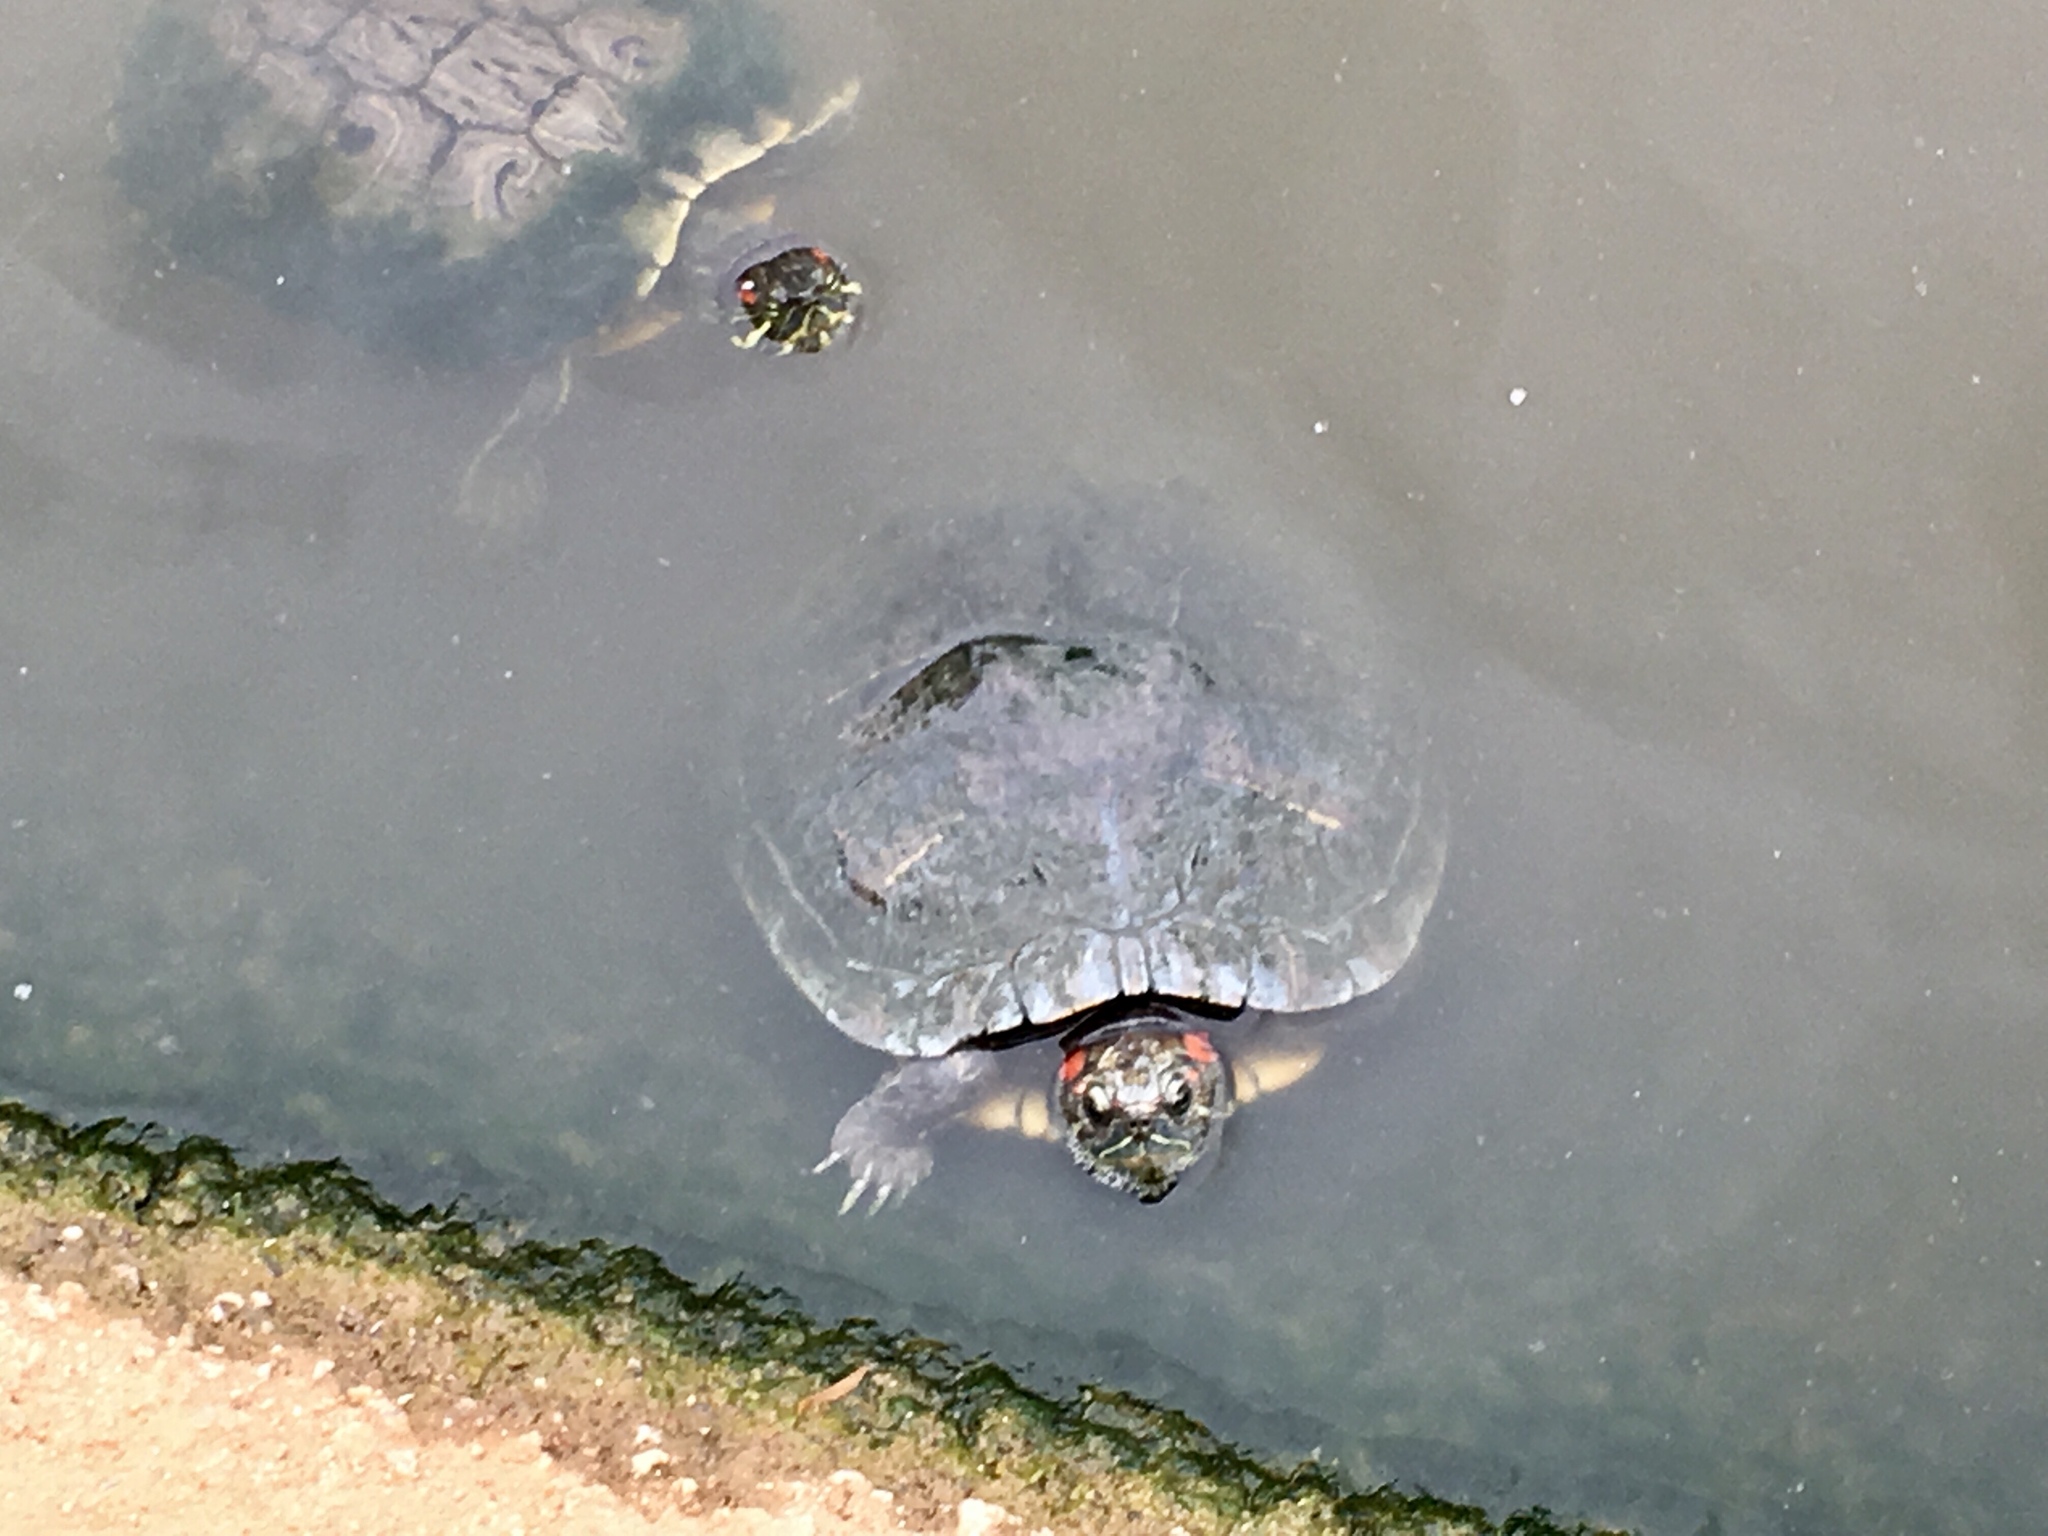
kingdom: Animalia
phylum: Chordata
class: Testudines
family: Emydidae
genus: Trachemys
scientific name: Trachemys scripta
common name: Slider
